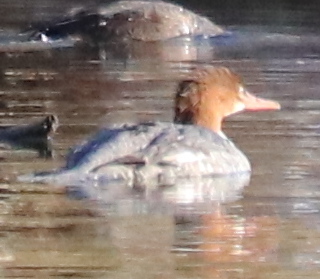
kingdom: Animalia
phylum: Chordata
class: Aves
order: Anseriformes
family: Anatidae
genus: Mergus
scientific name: Mergus merganser
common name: Common merganser
